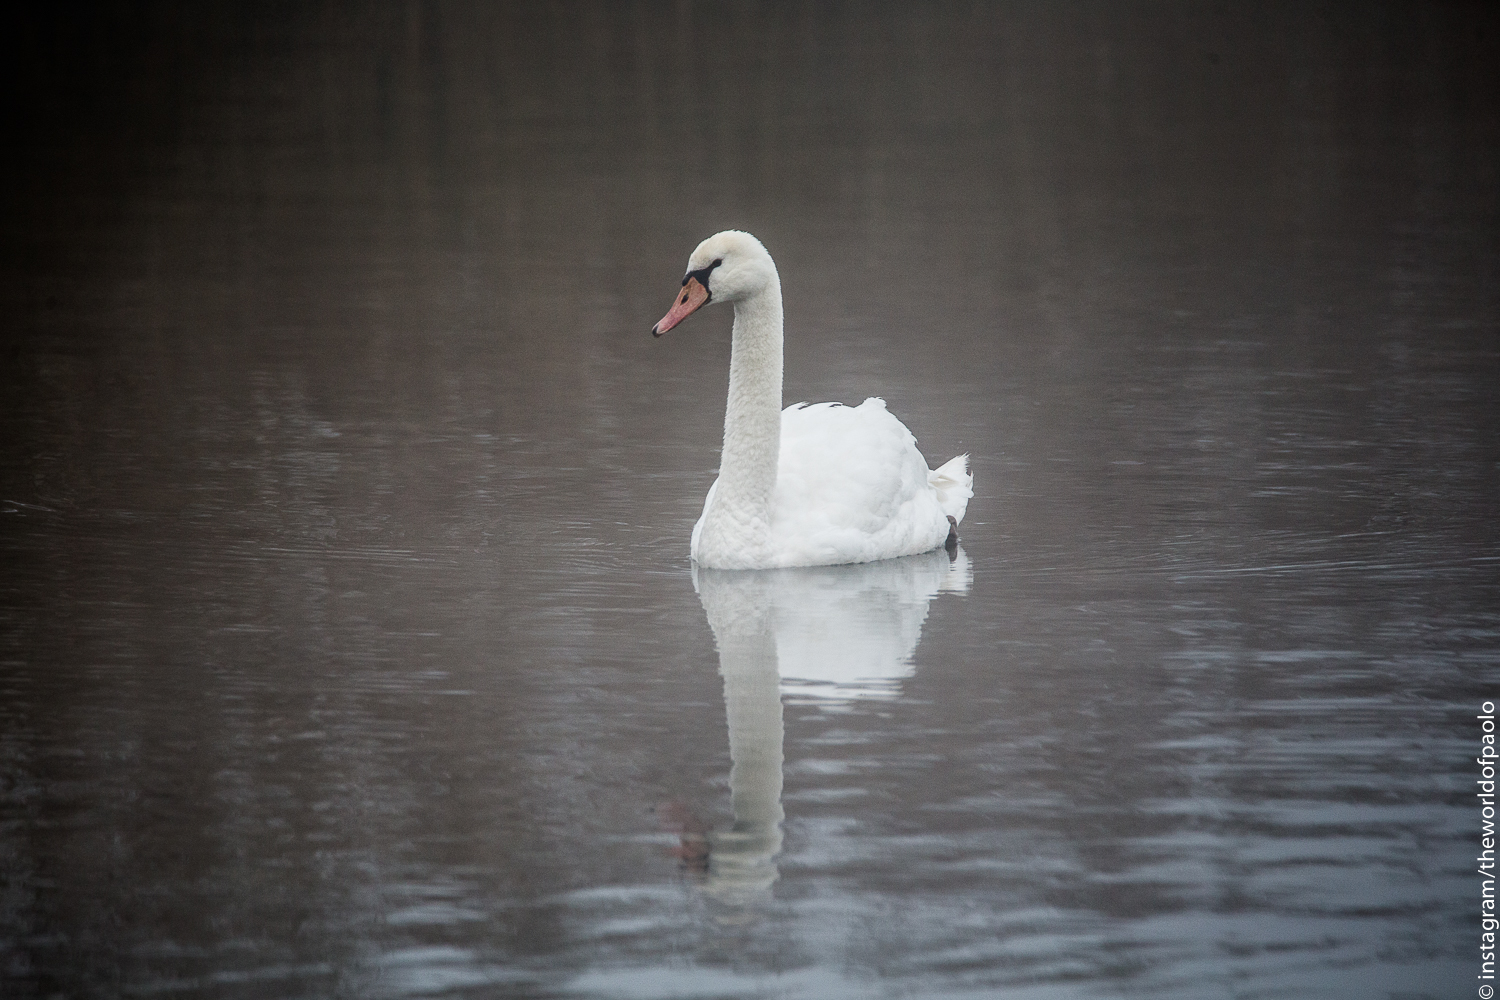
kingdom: Animalia
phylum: Chordata
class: Aves
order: Anseriformes
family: Anatidae
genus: Cygnus
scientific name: Cygnus olor
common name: Mute swan
